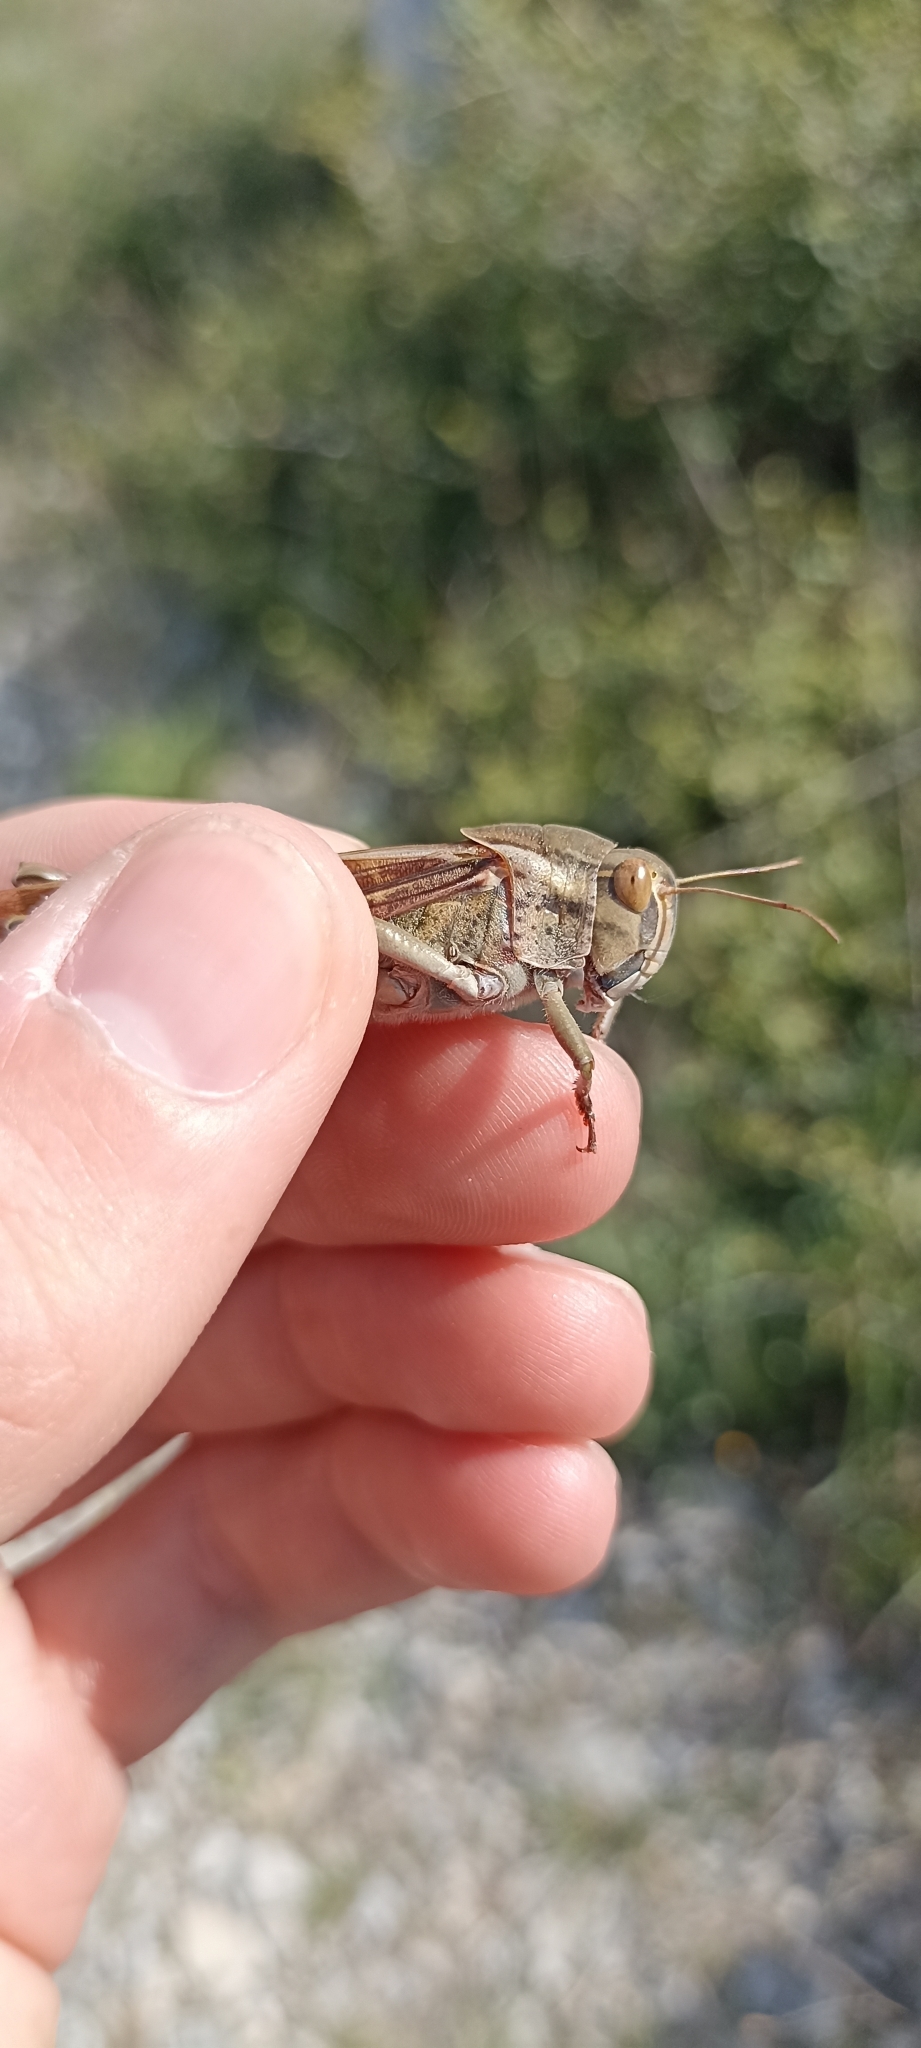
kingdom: Animalia
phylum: Arthropoda
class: Insecta
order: Orthoptera
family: Acrididae
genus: Locusta
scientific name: Locusta migratoria
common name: Migratory locust
